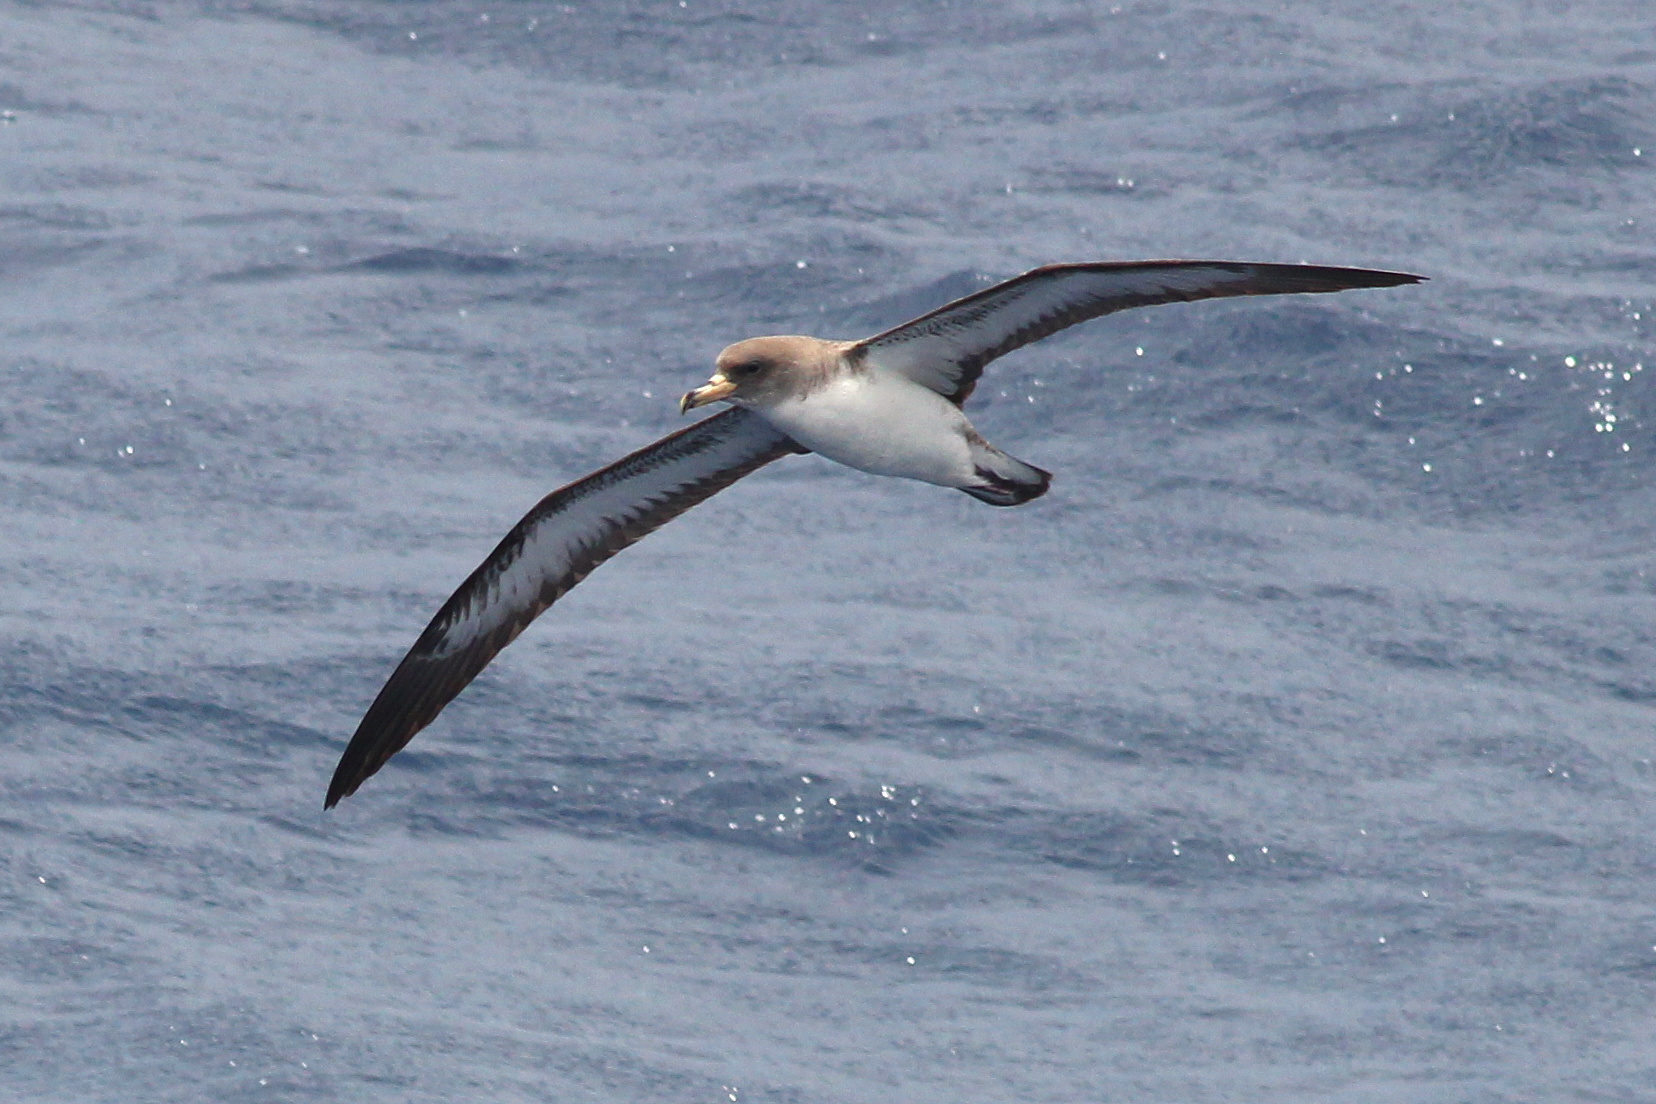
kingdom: Animalia
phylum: Chordata
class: Aves
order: Procellariiformes
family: Procellariidae
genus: Calonectris
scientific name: Calonectris diomedea
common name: Cory's shearwater
